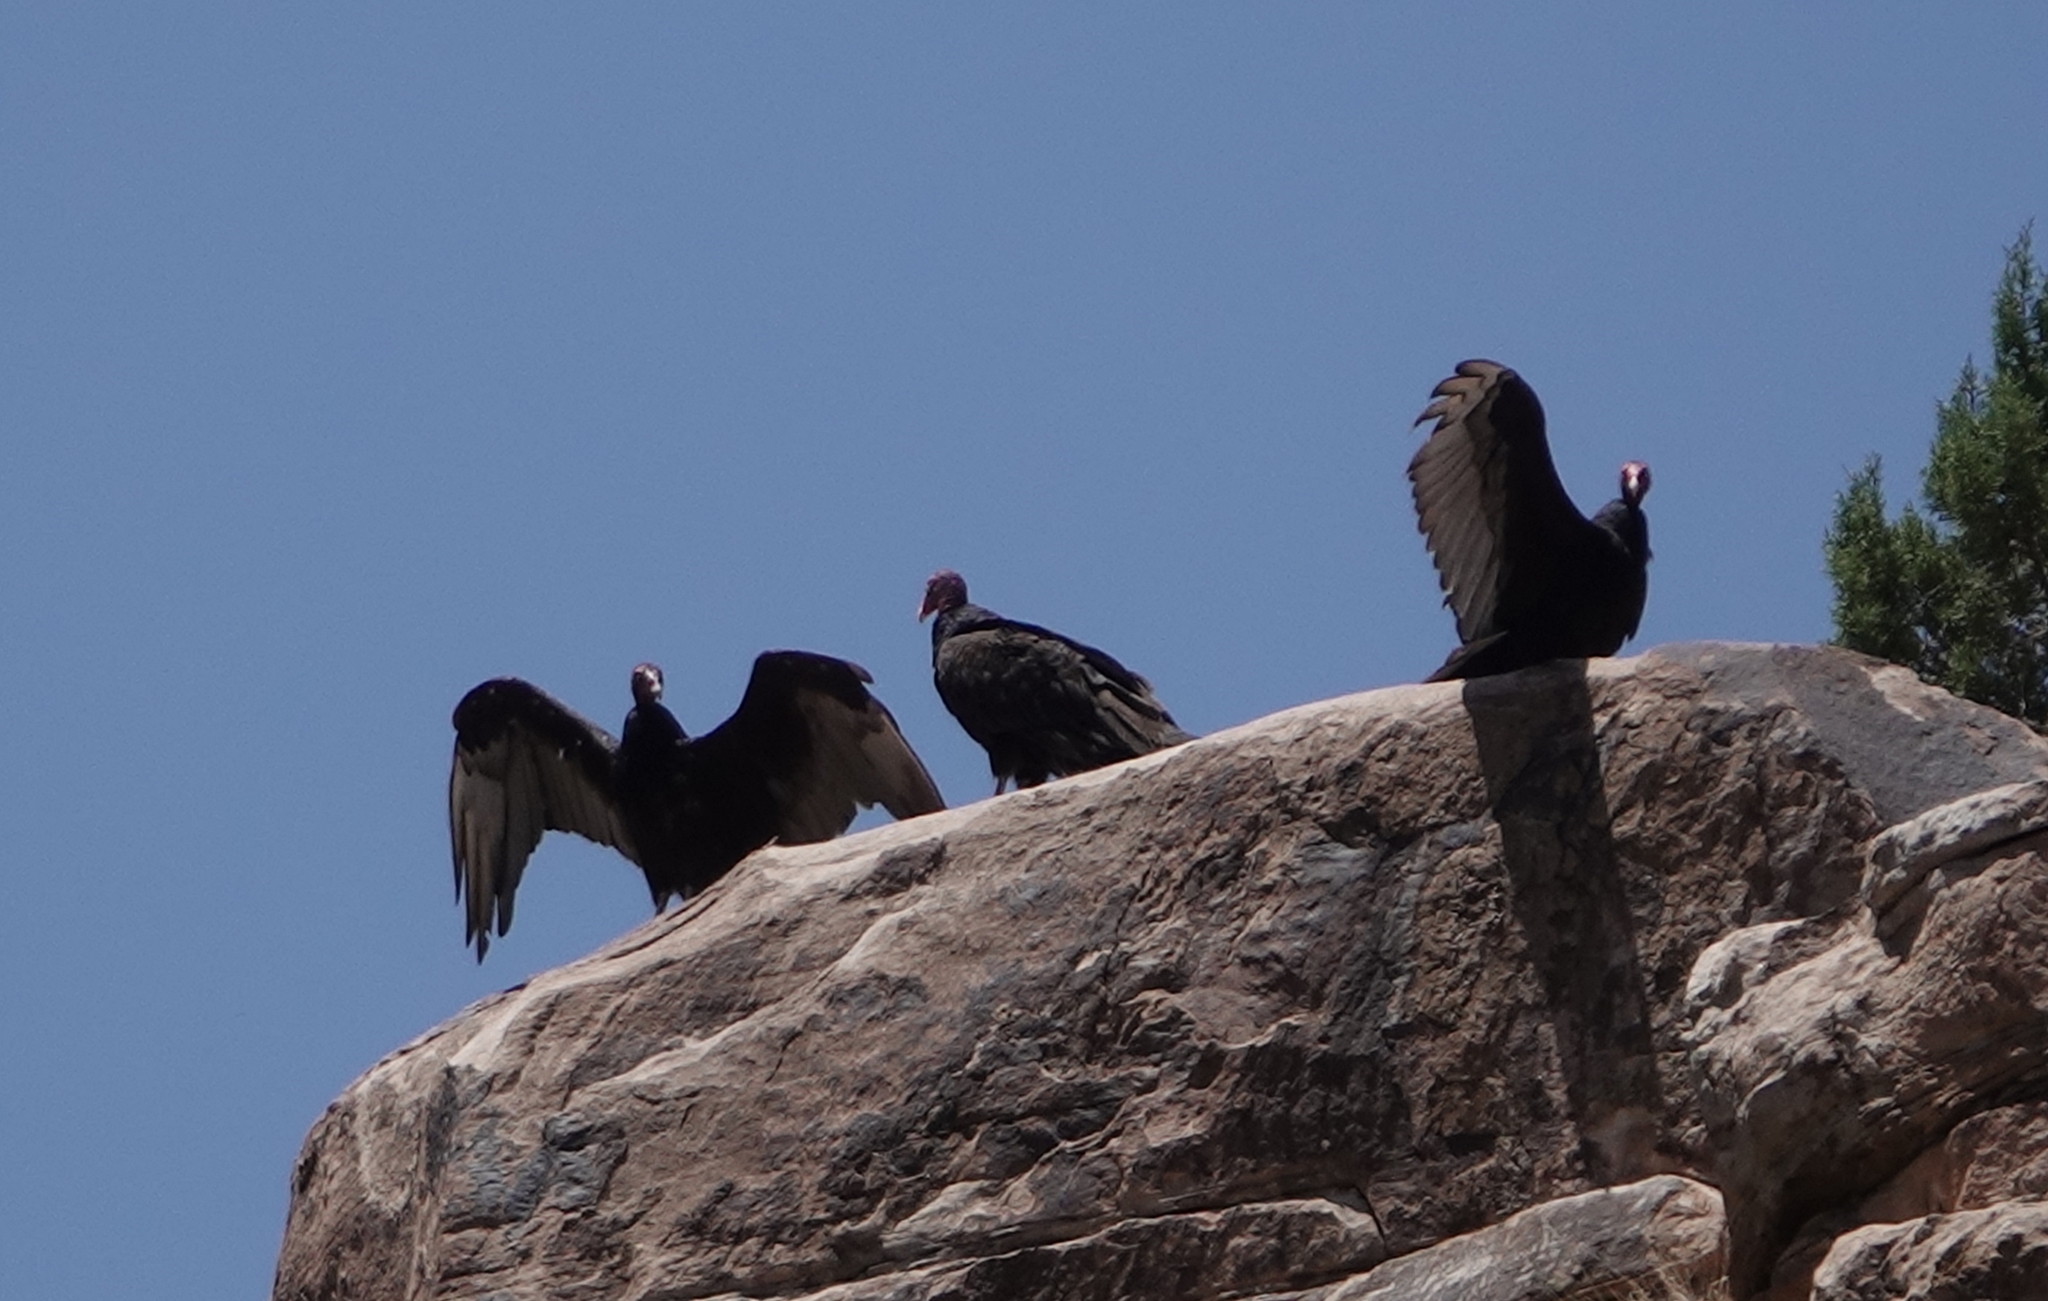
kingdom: Animalia
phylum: Chordata
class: Aves
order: Accipitriformes
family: Cathartidae
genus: Cathartes
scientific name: Cathartes aura
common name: Turkey vulture
